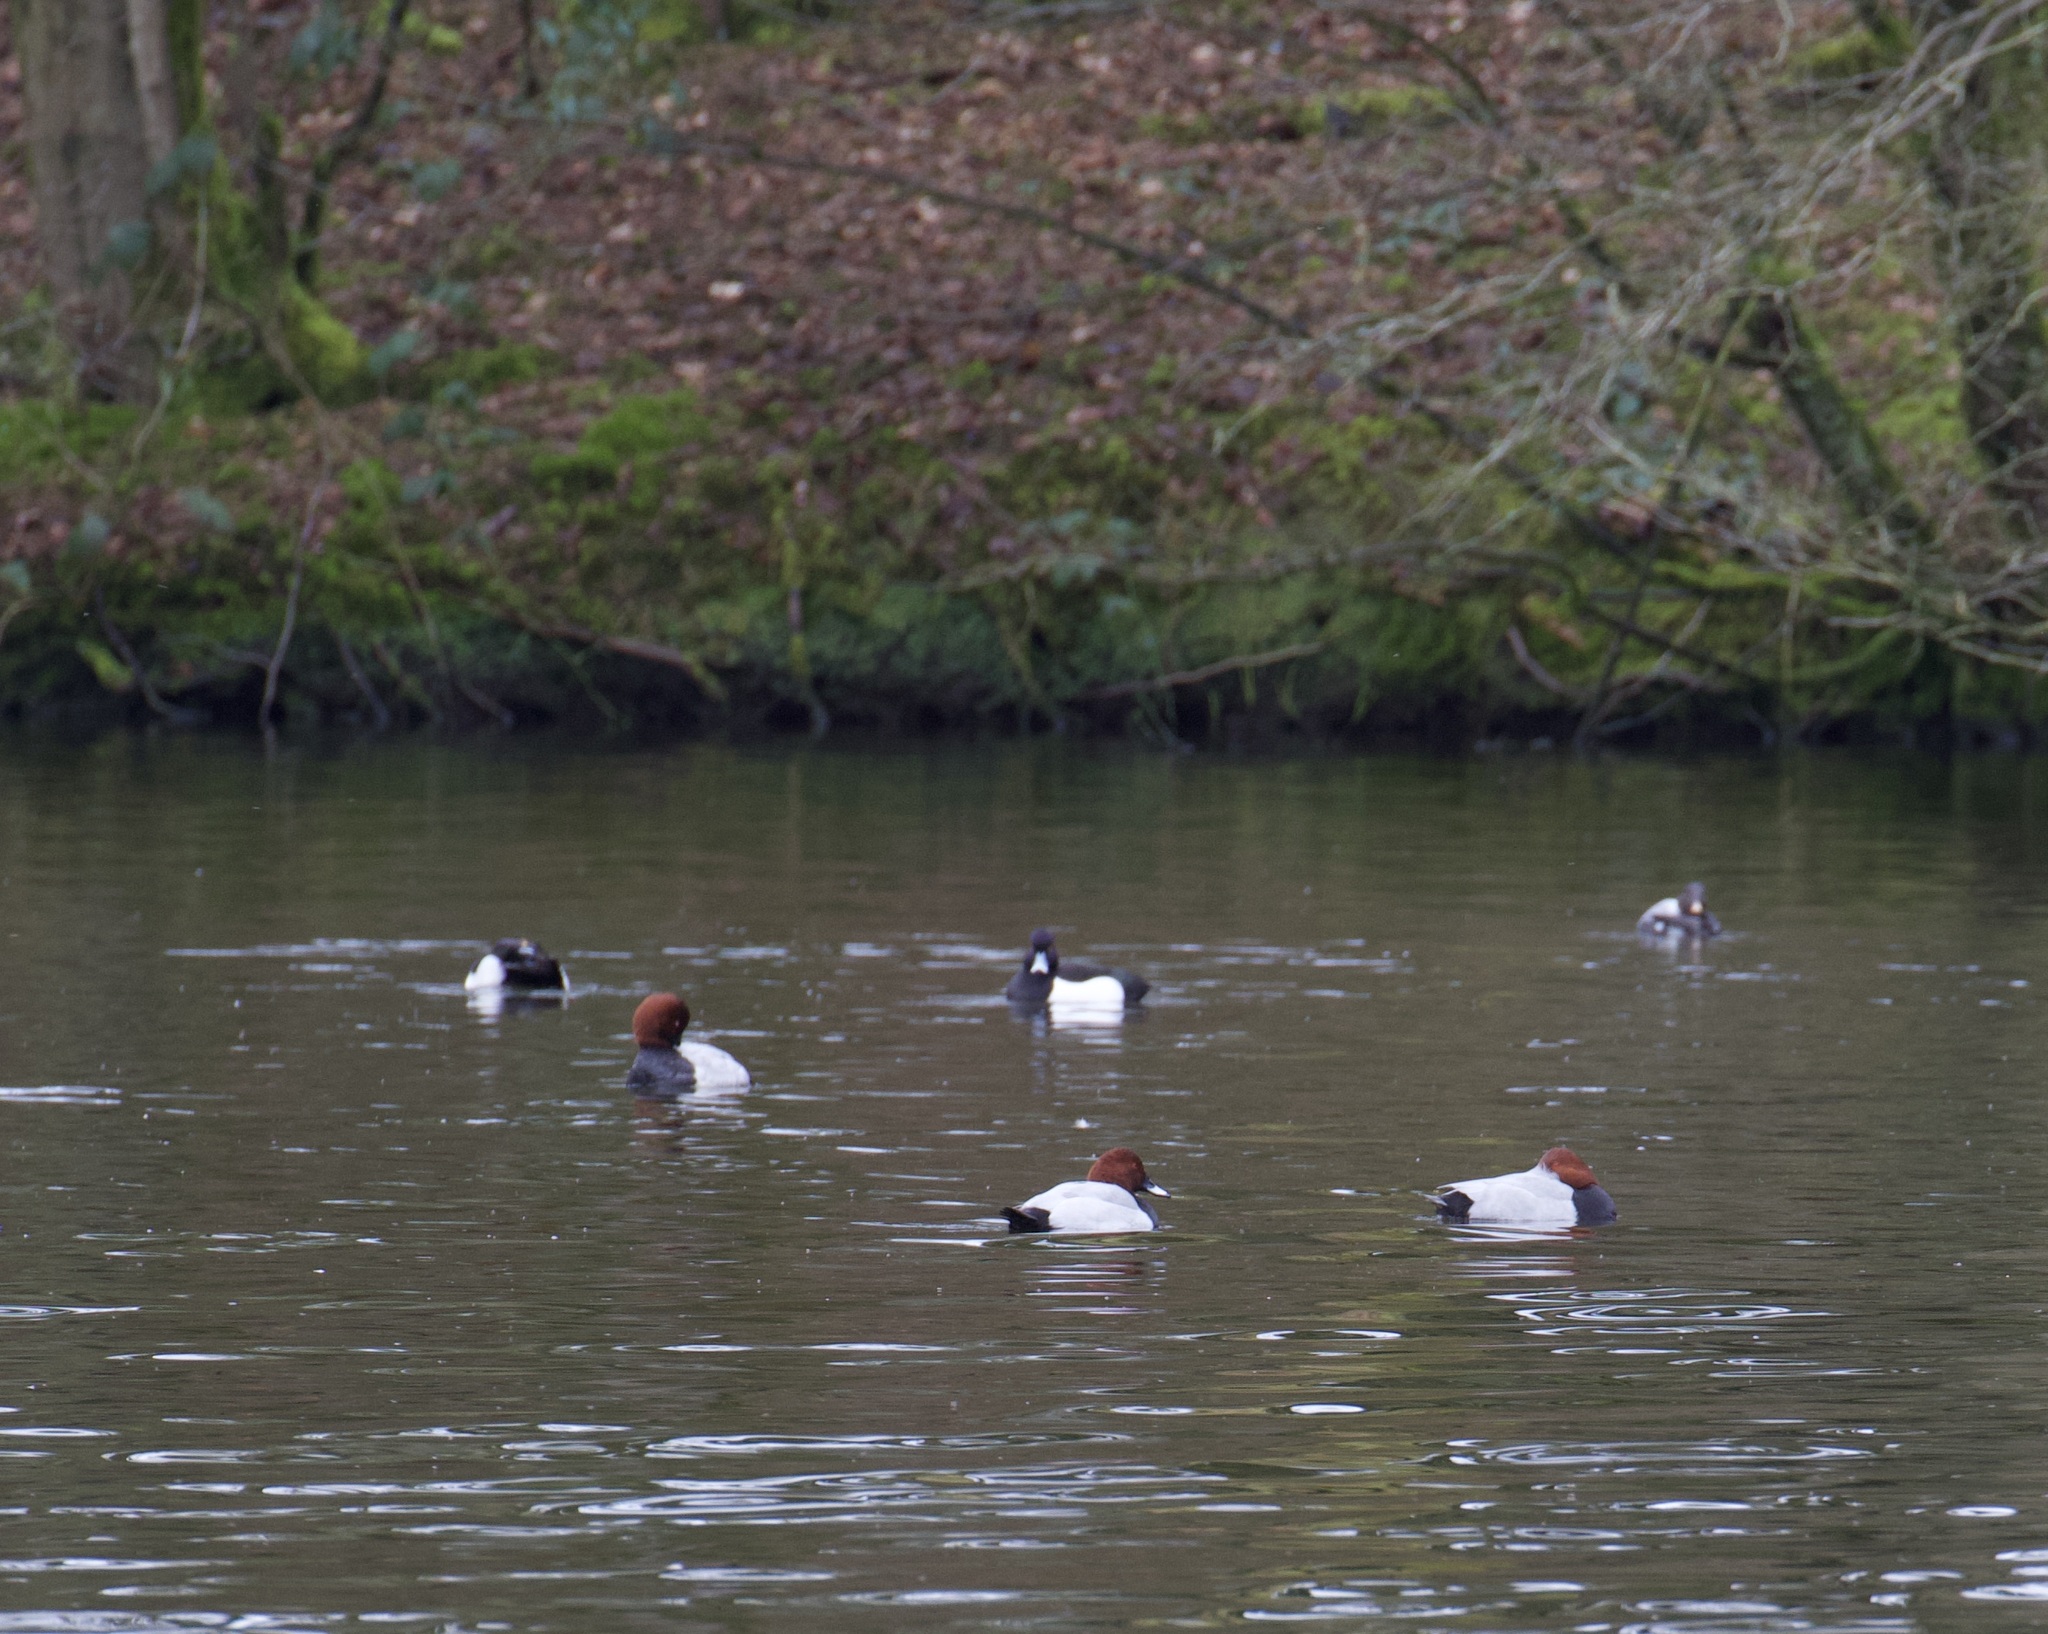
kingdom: Animalia
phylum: Chordata
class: Aves
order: Anseriformes
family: Anatidae
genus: Aythya
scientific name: Aythya ferina
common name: Common pochard
